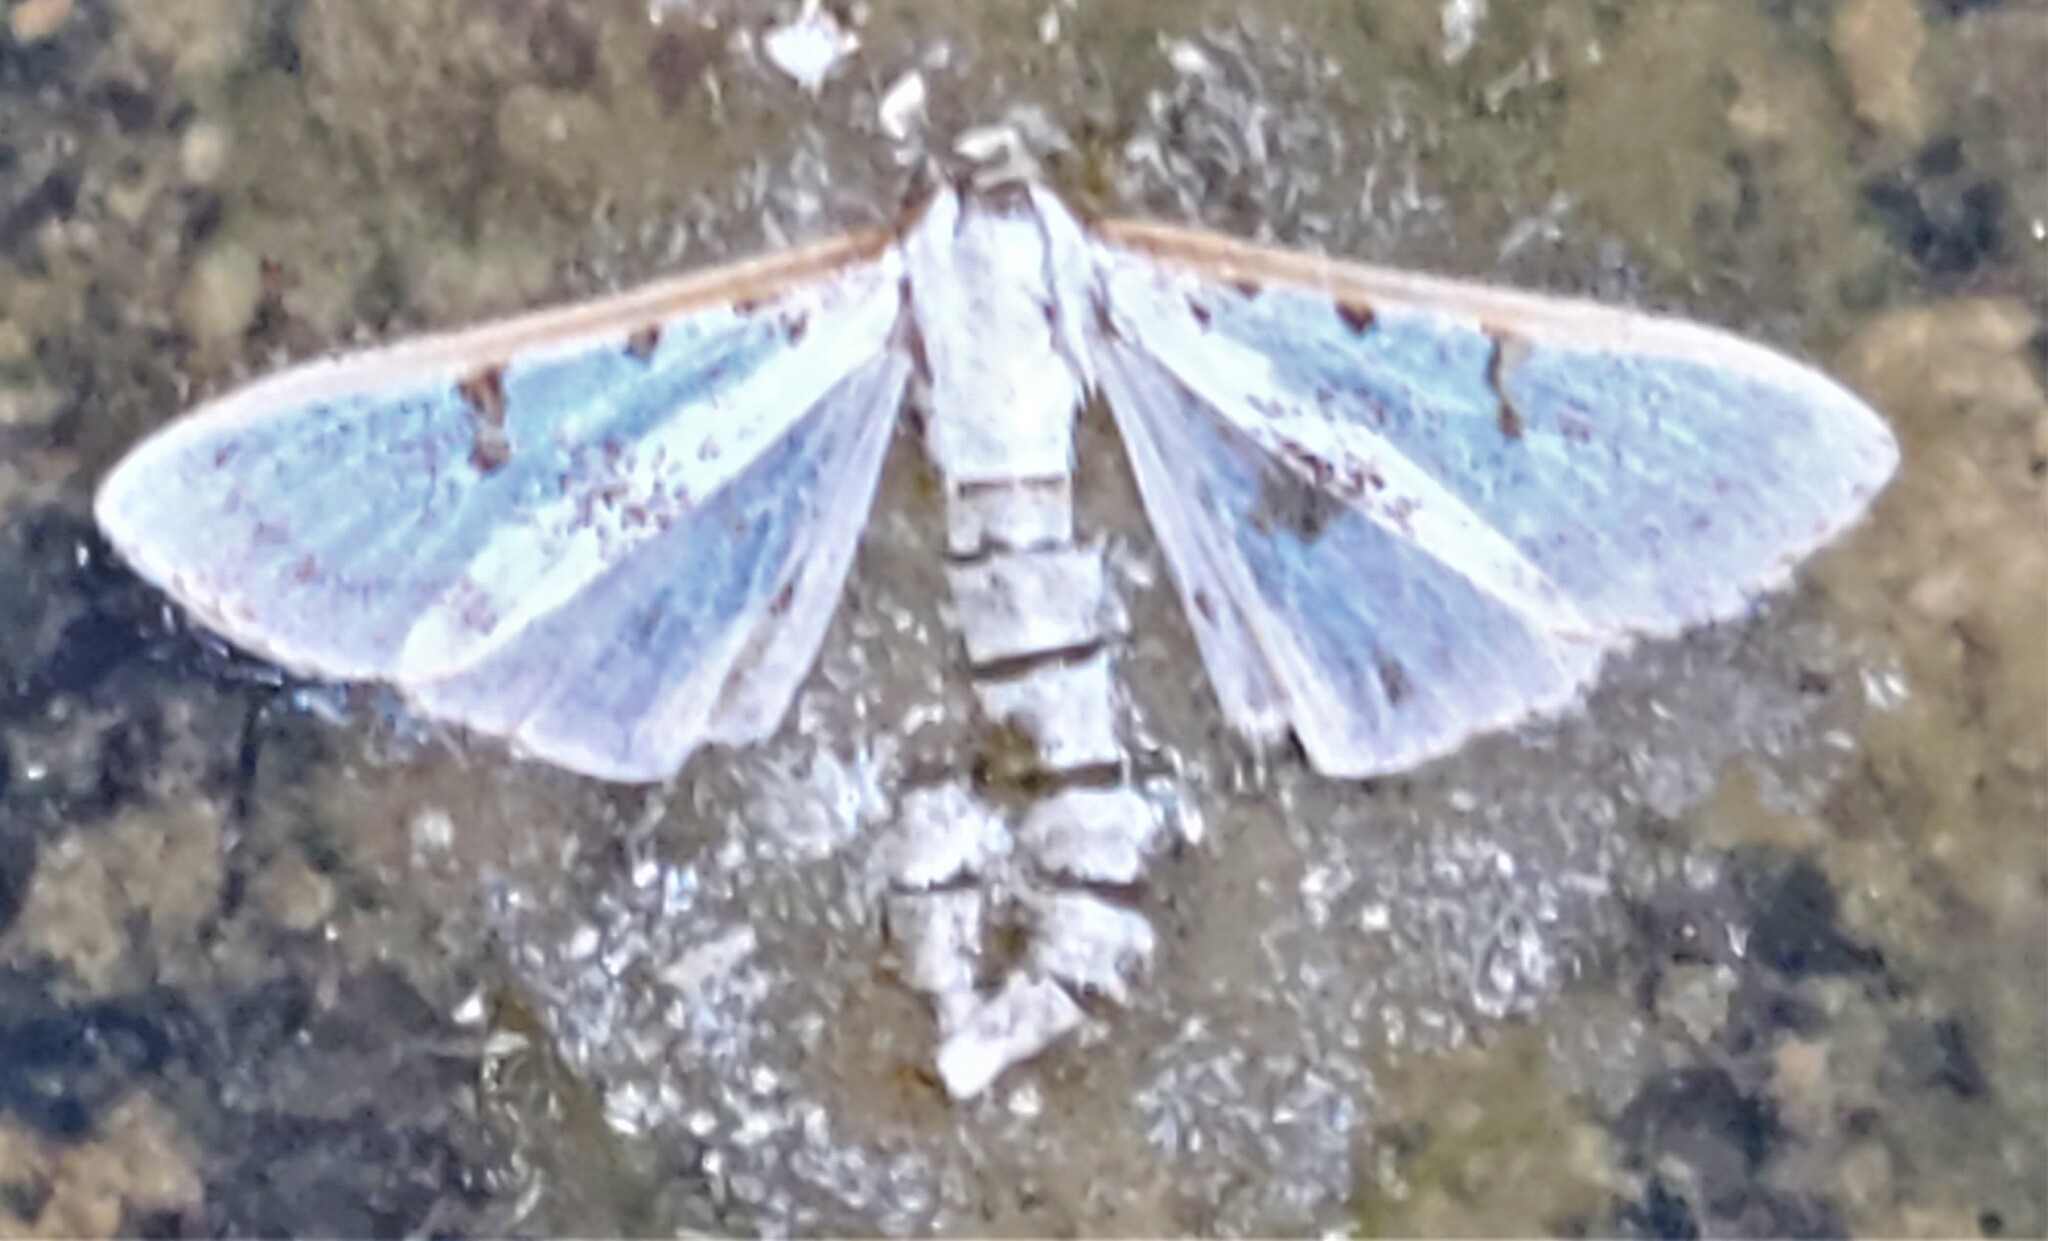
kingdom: Animalia
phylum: Arthropoda
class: Insecta
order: Lepidoptera
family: Crambidae
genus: Palpita
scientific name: Palpita gracilalis
